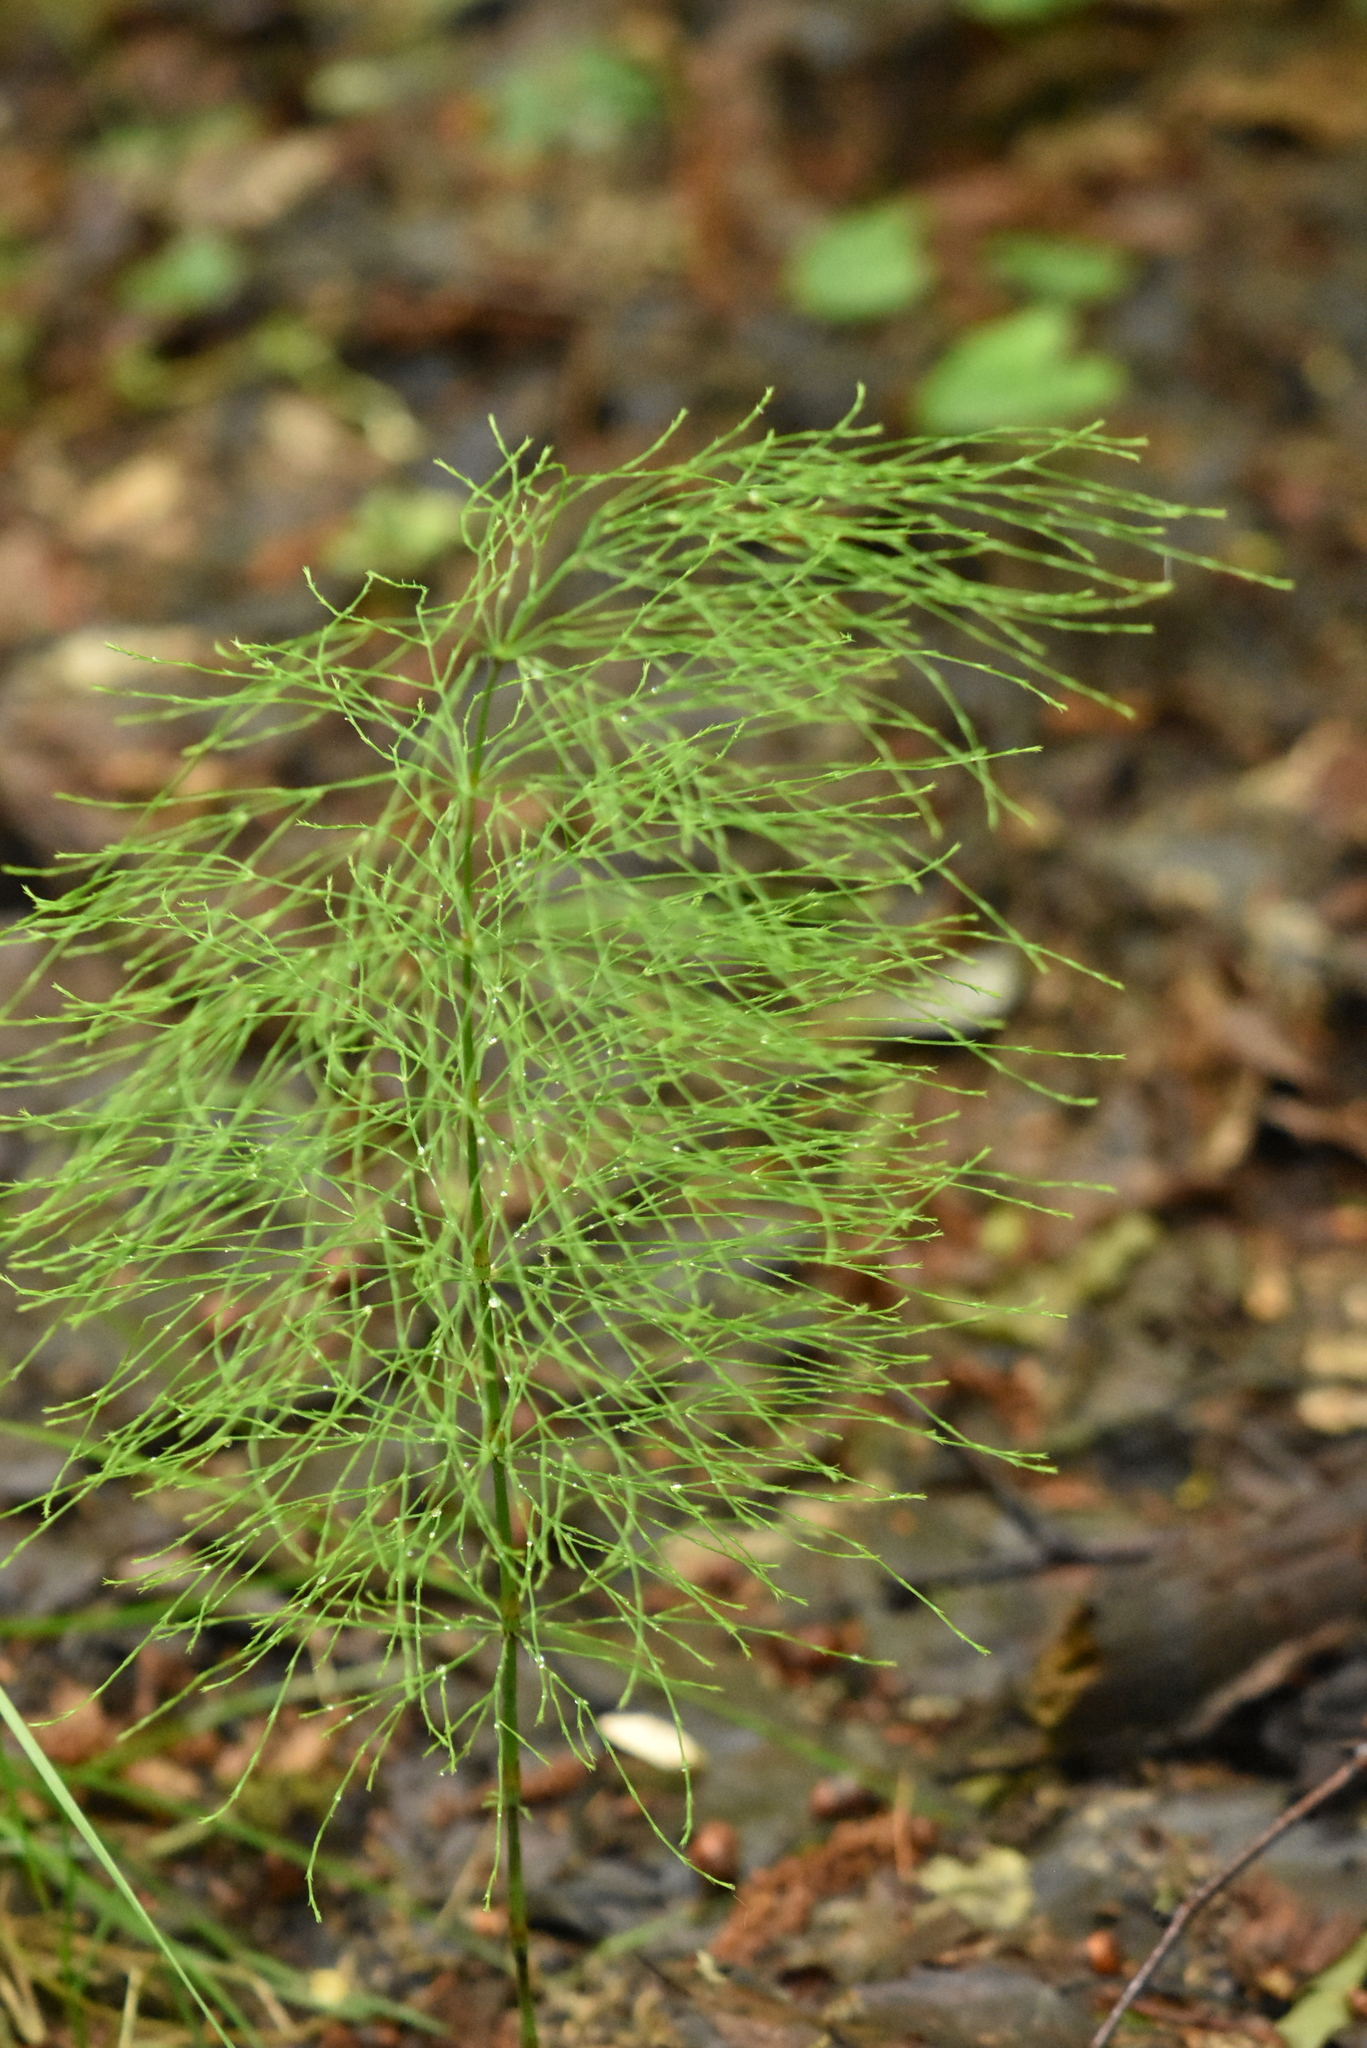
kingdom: Plantae
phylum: Tracheophyta
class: Polypodiopsida
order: Equisetales
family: Equisetaceae
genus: Equisetum
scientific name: Equisetum sylvaticum
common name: Wood horsetail
